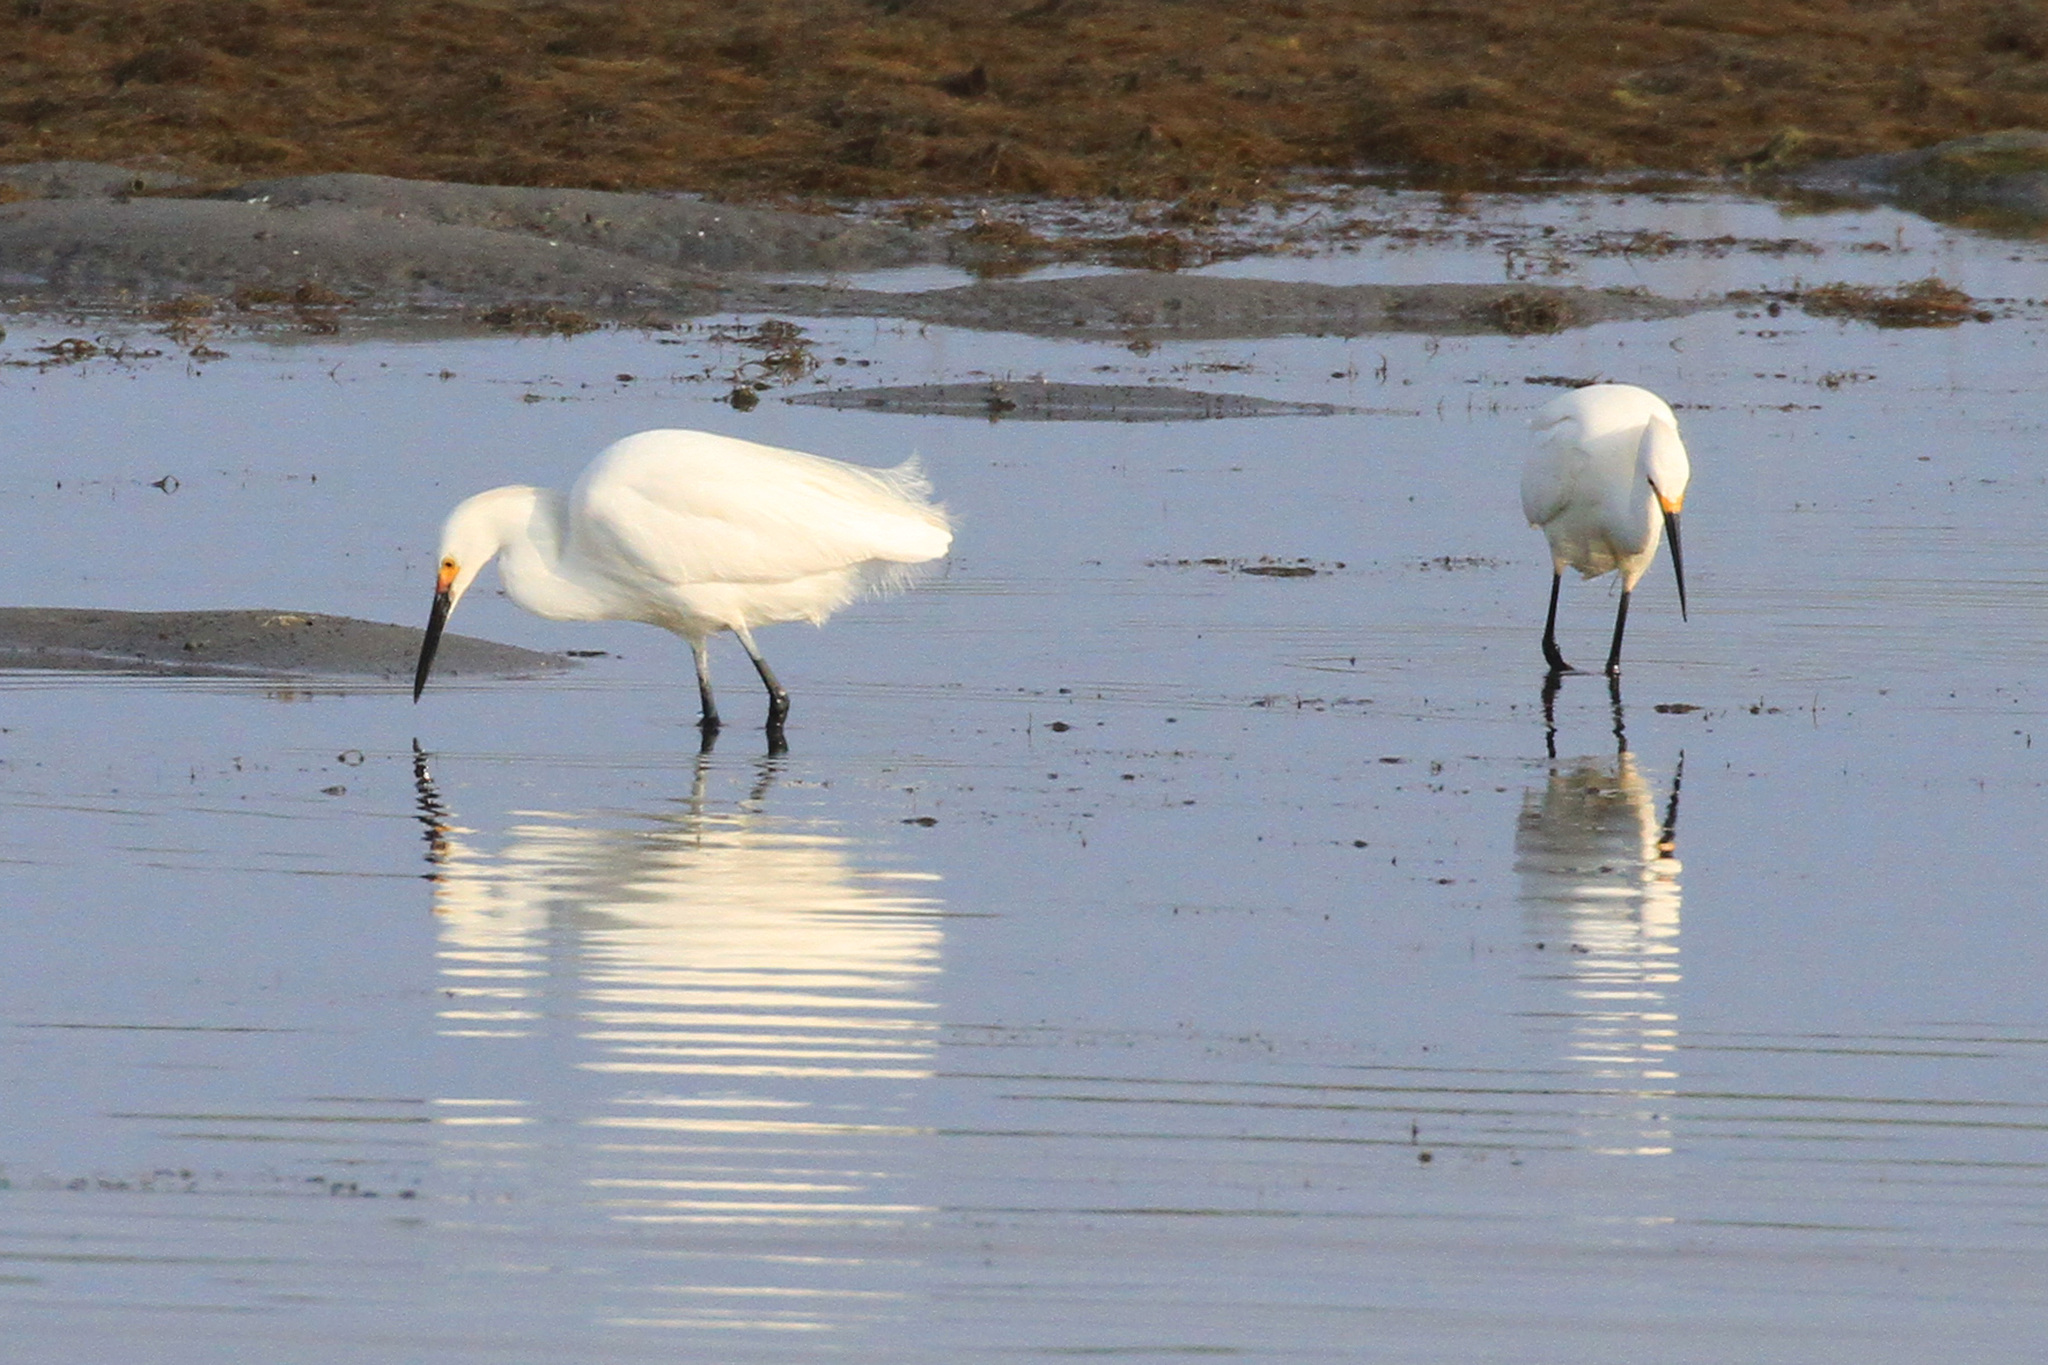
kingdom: Animalia
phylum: Chordata
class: Aves
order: Pelecaniformes
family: Ardeidae
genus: Egretta
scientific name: Egretta thula
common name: Snowy egret
